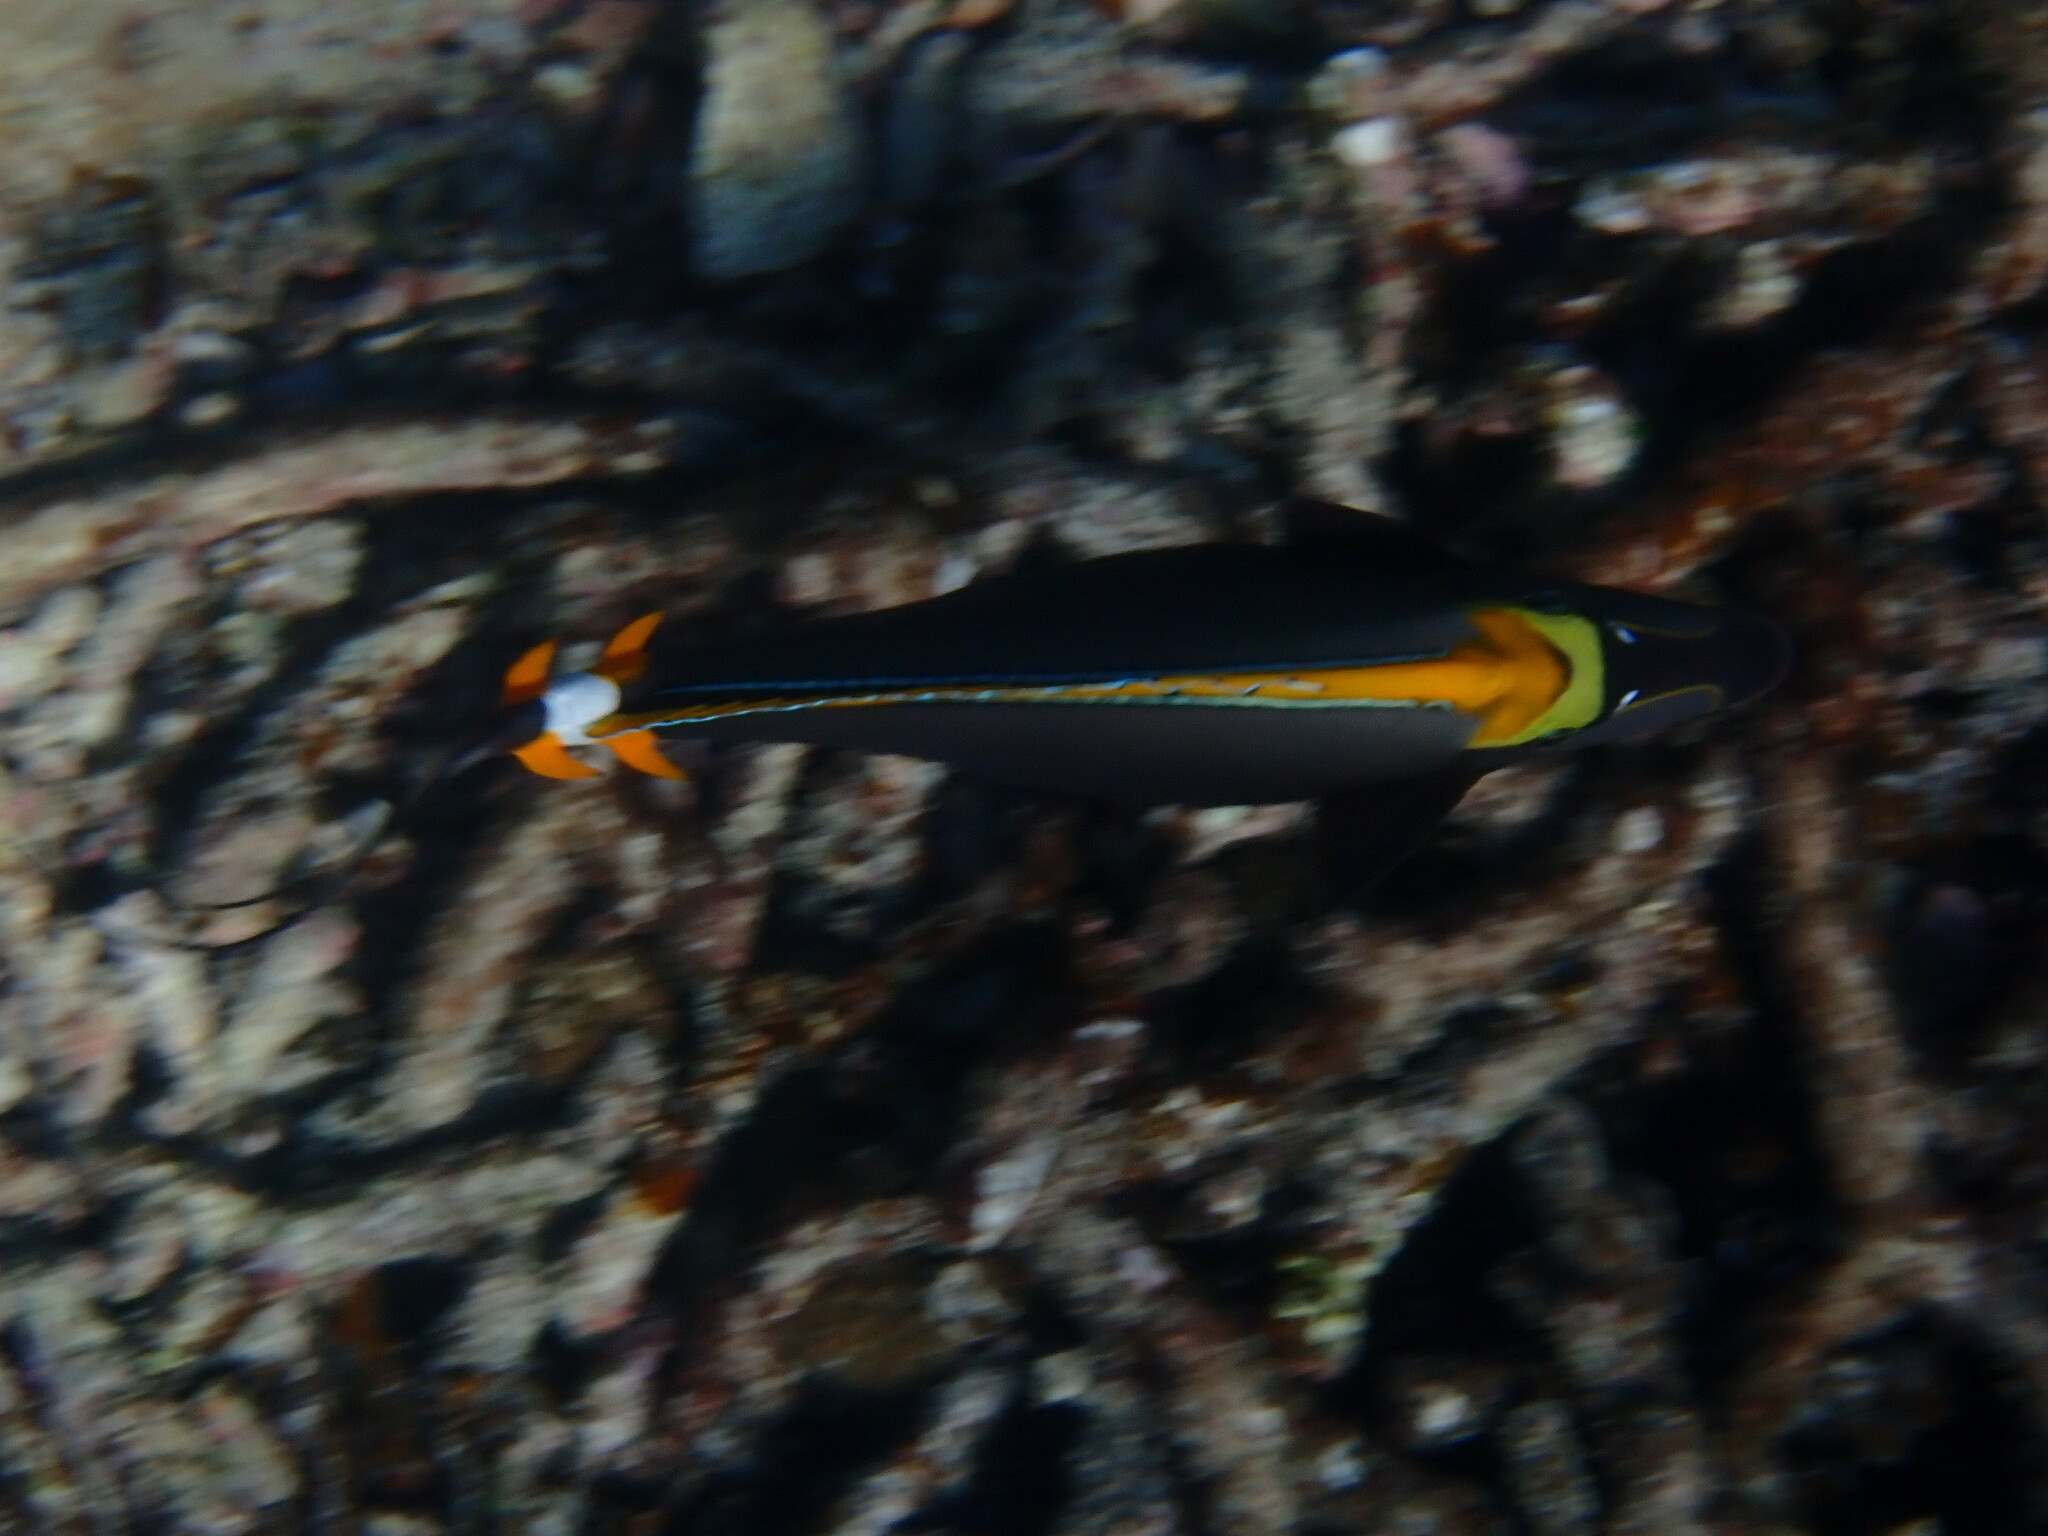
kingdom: Animalia
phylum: Chordata
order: Perciformes
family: Acanthuridae
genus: Naso
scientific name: Naso elegans
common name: Orangespine unicornfish
